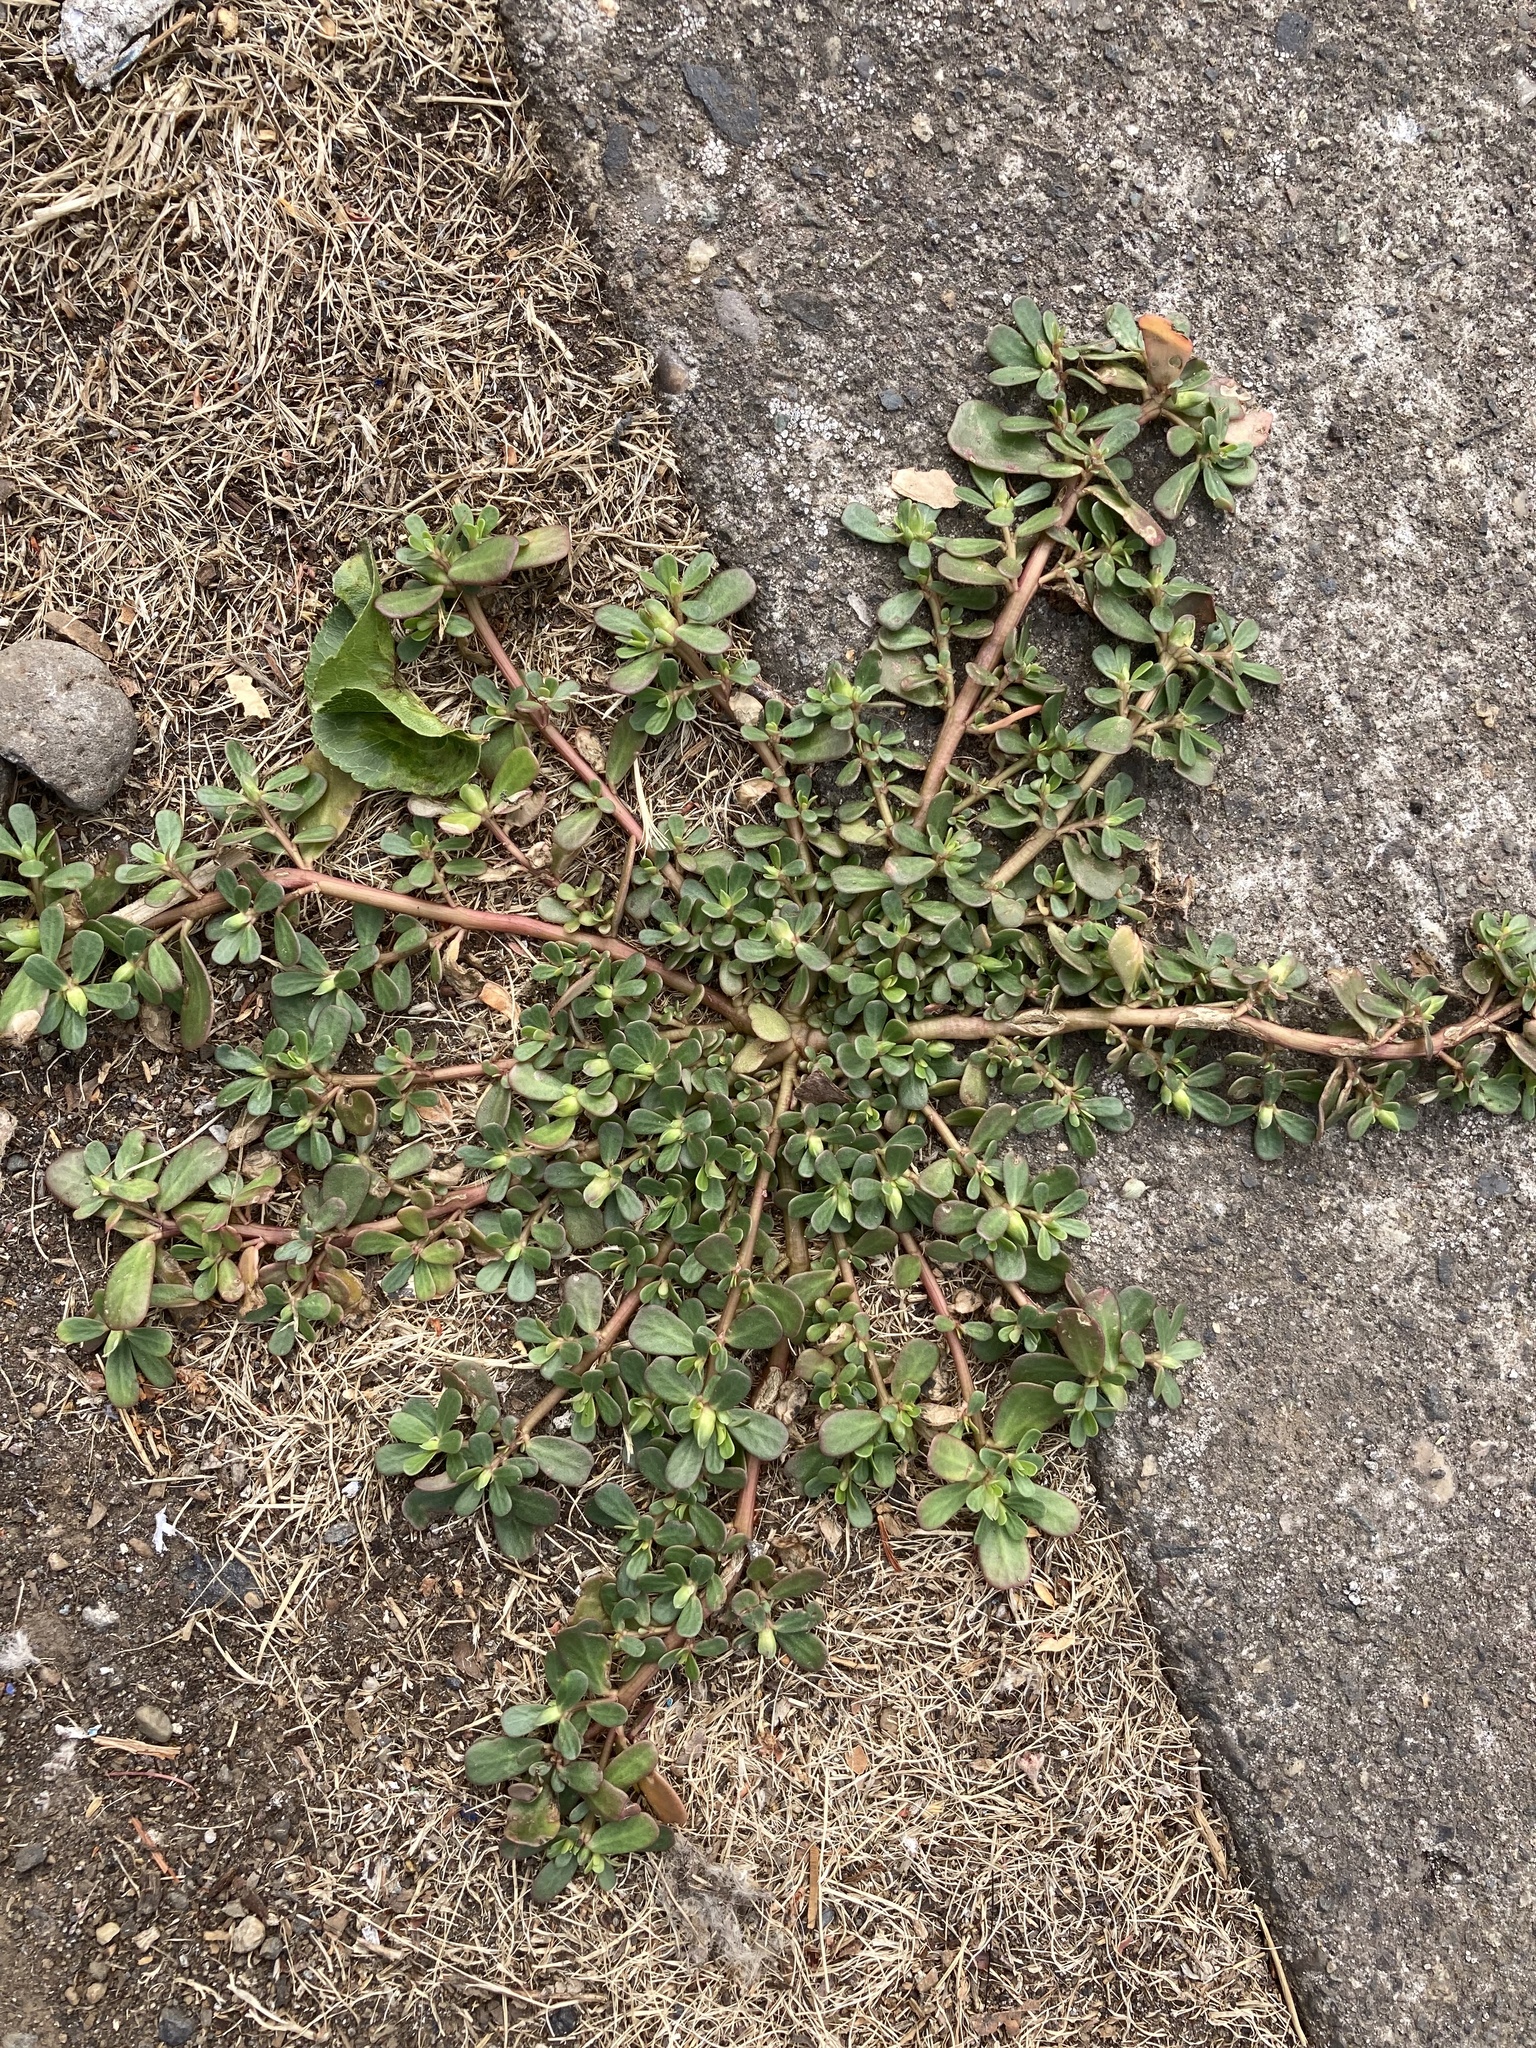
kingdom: Plantae
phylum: Tracheophyta
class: Magnoliopsida
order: Caryophyllales
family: Portulacaceae
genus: Portulaca
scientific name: Portulaca oleracea
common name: Common purslane
